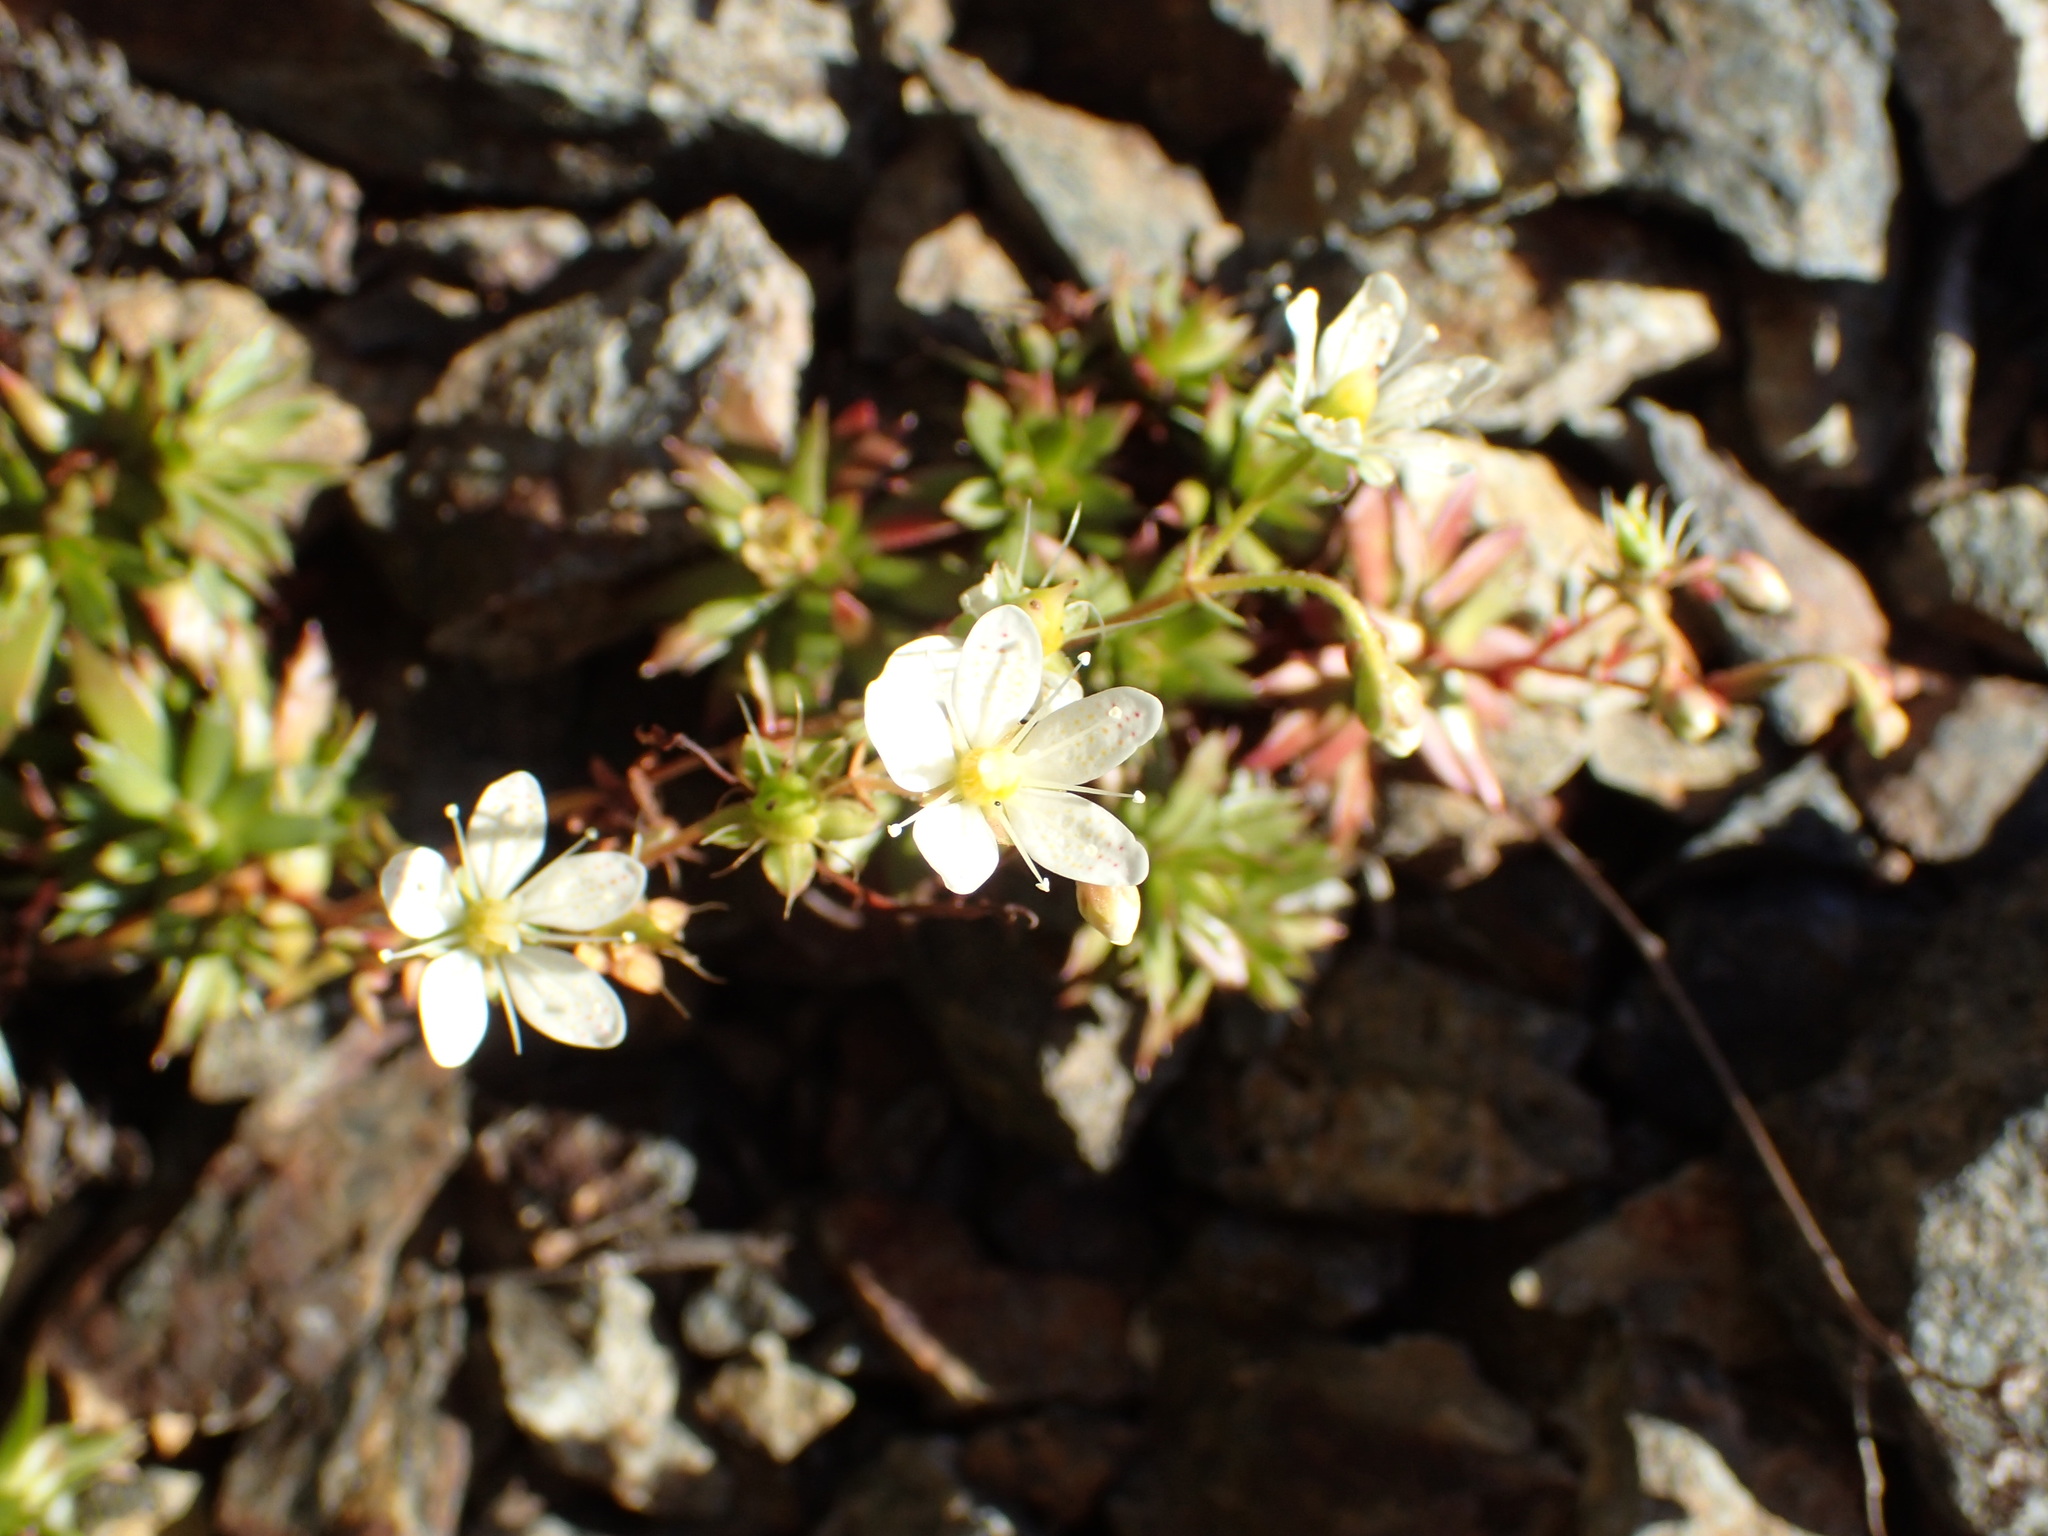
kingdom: Plantae
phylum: Tracheophyta
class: Magnoliopsida
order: Saxifragales
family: Saxifragaceae
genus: Saxifraga
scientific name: Saxifraga tricuspidata
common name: Prickly saxifrage
